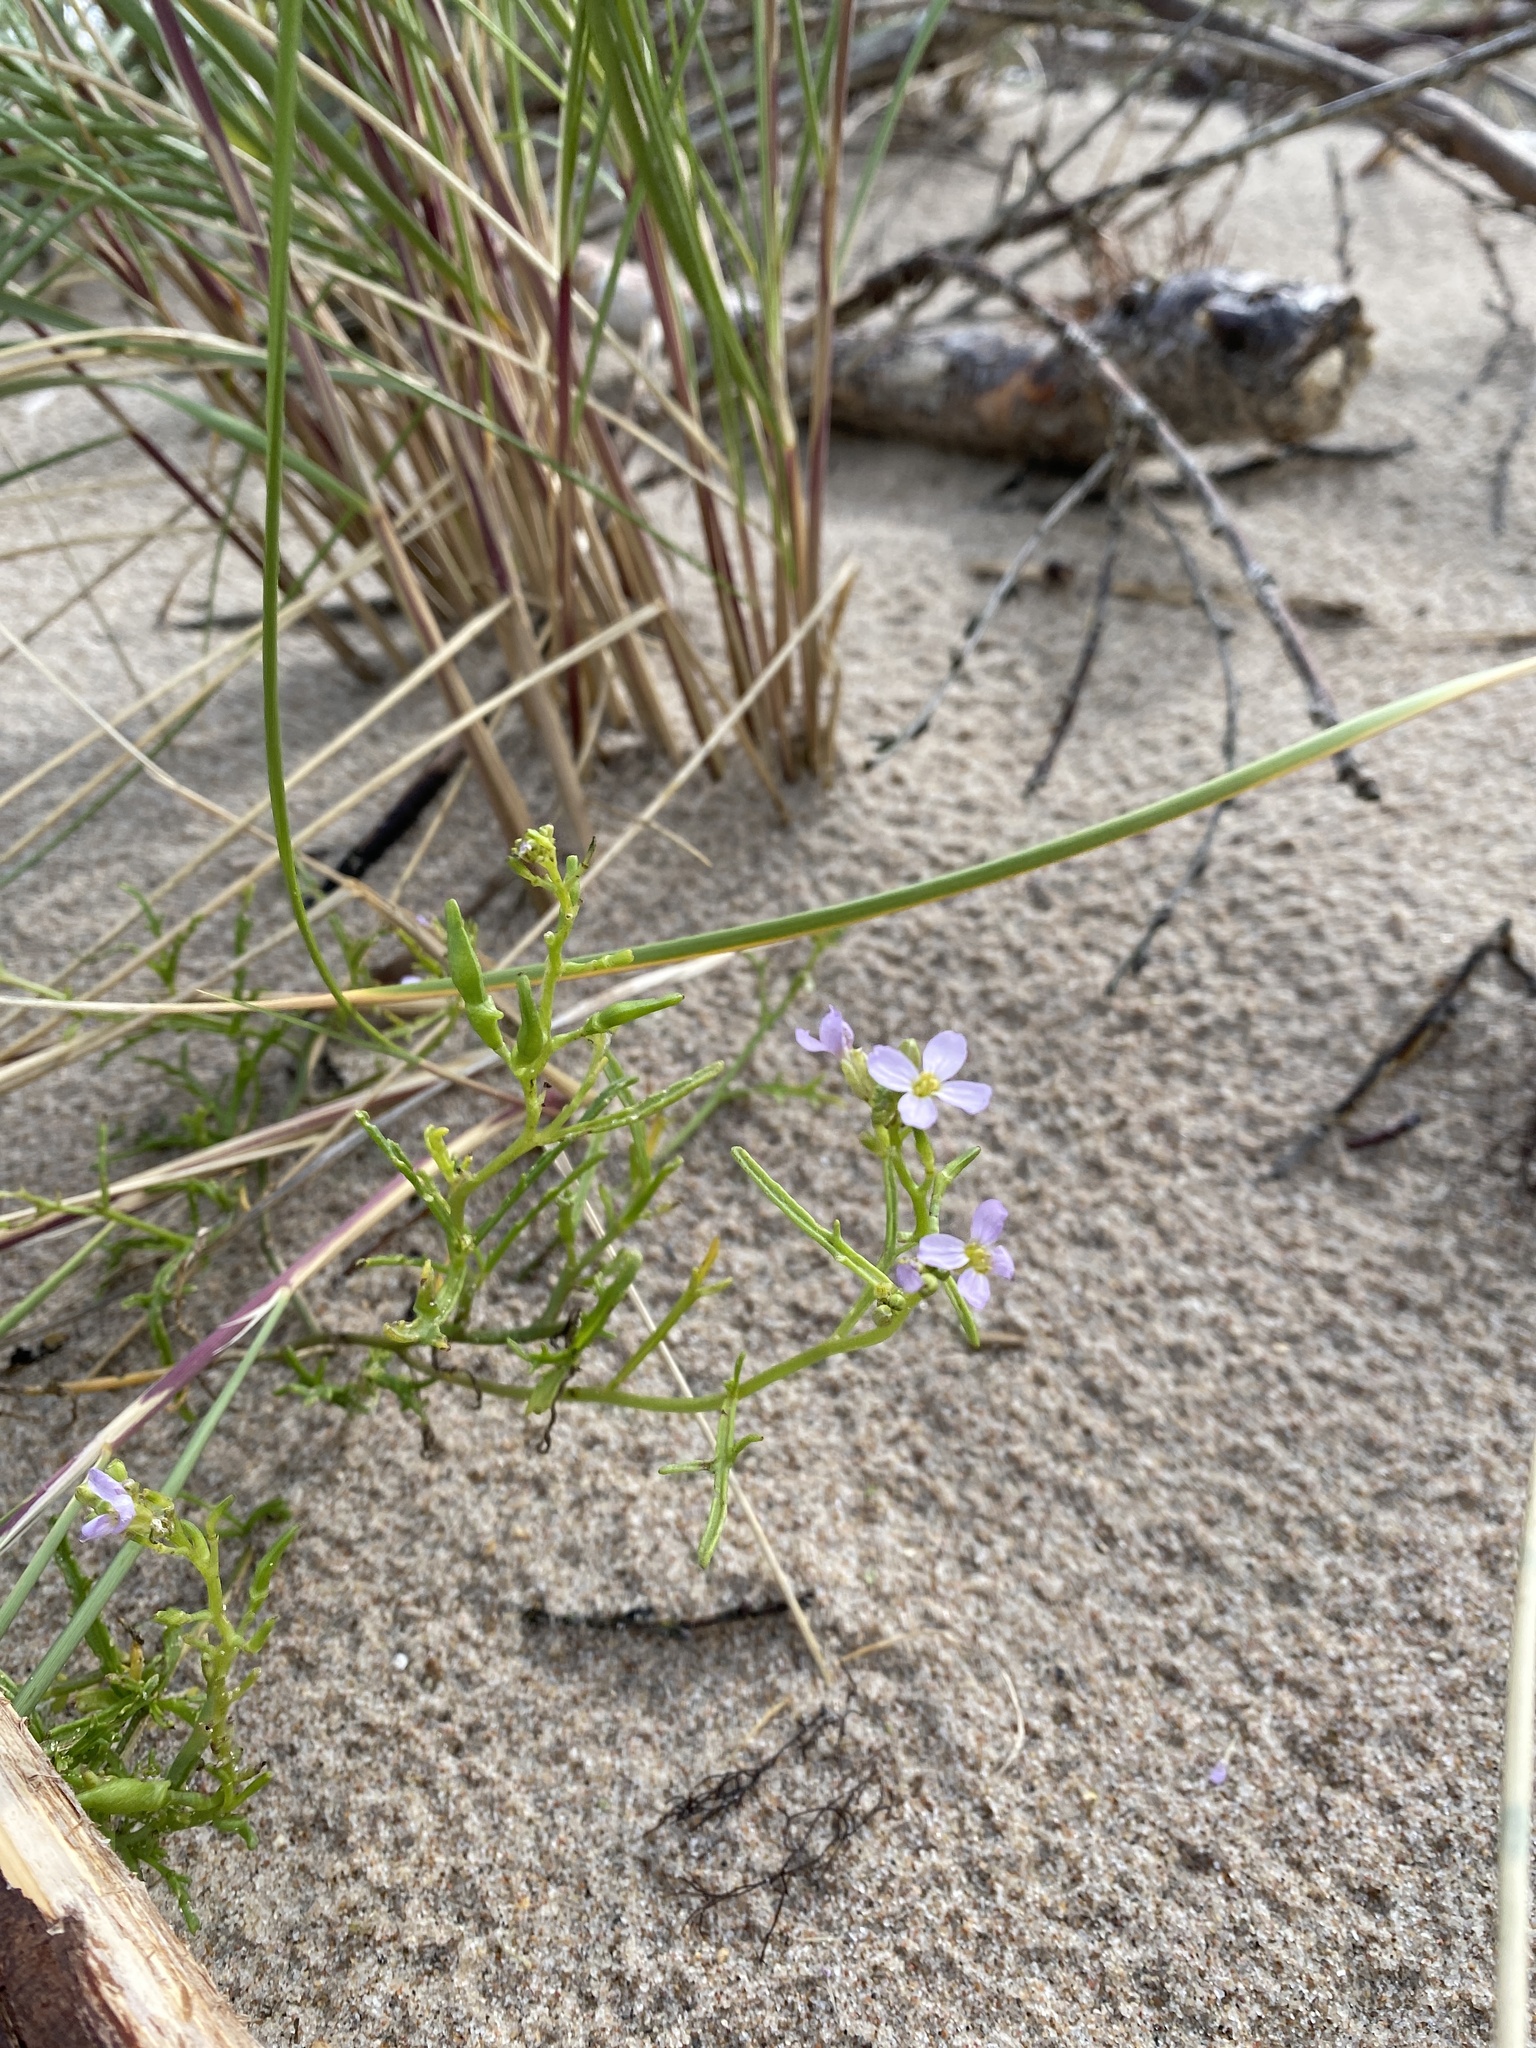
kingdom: Plantae
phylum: Tracheophyta
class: Magnoliopsida
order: Brassicales
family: Brassicaceae
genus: Cakile
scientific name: Cakile maritima
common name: Sea rocket
